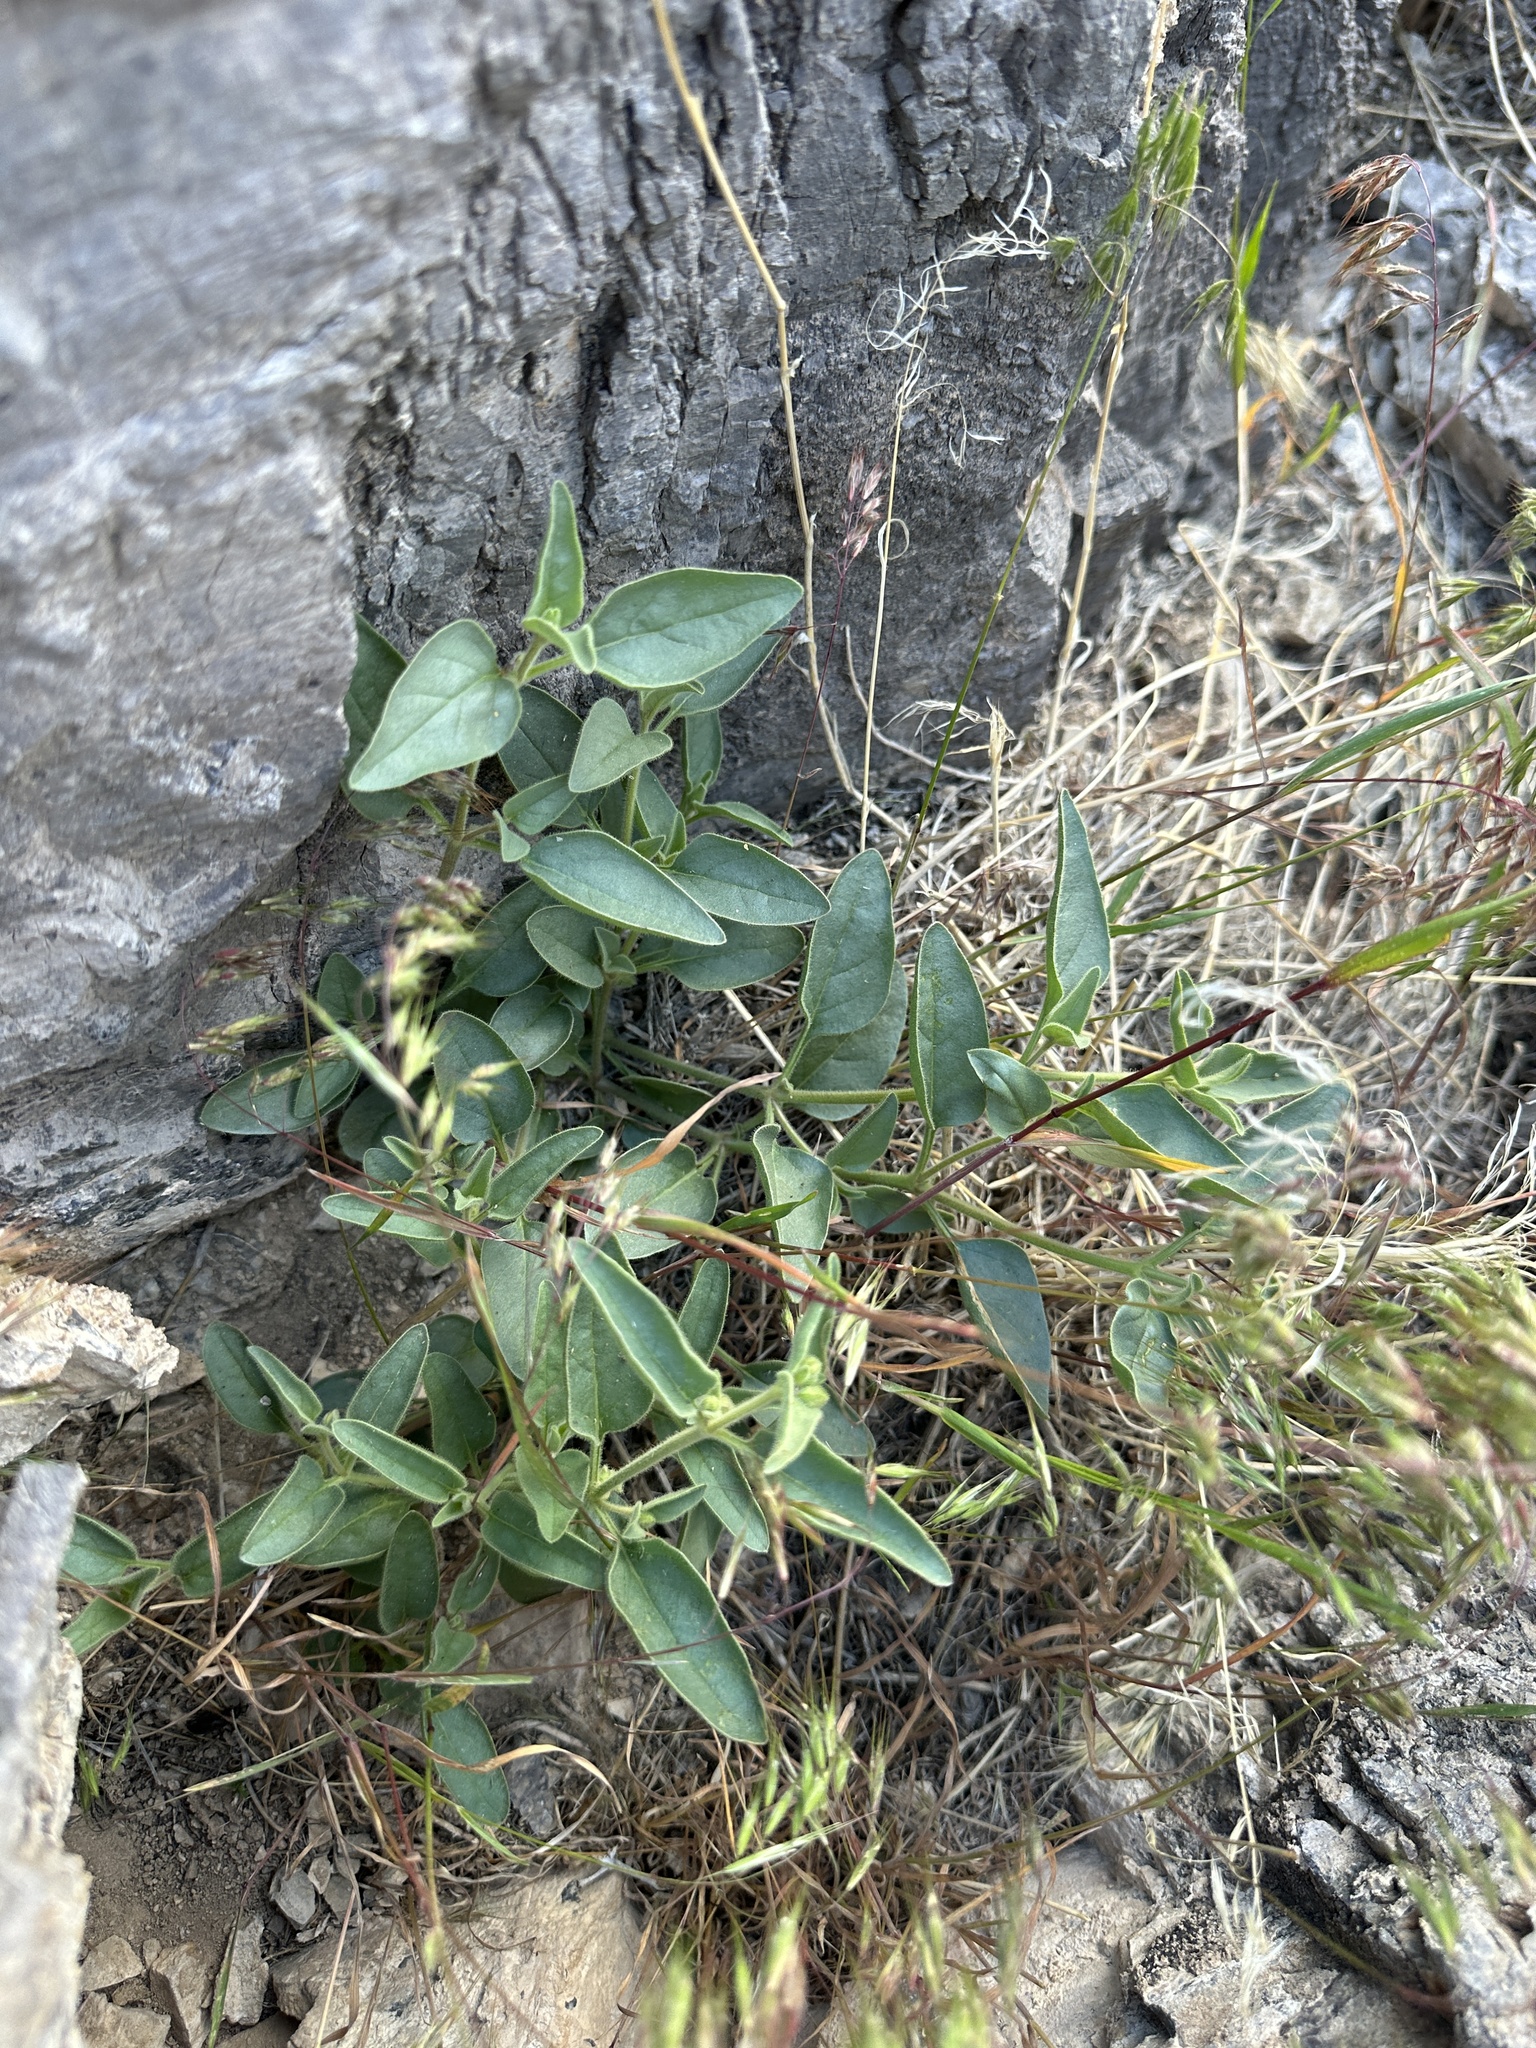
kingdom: Plantae
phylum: Tracheophyta
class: Magnoliopsida
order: Caryophyllales
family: Nyctaginaceae
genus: Mirabilis
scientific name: Mirabilis comata
